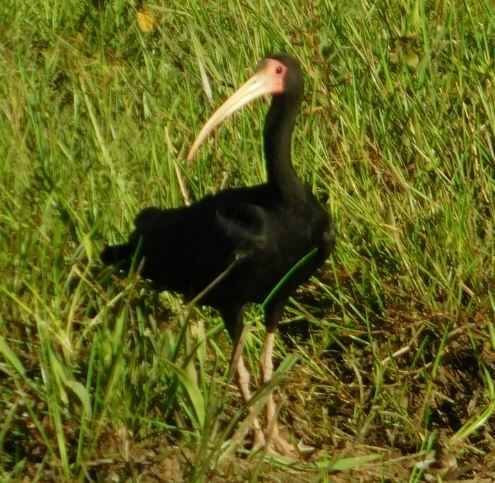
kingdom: Animalia
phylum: Chordata
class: Aves
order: Pelecaniformes
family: Threskiornithidae
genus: Phimosus
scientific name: Phimosus infuscatus
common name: Bare-faced ibis
